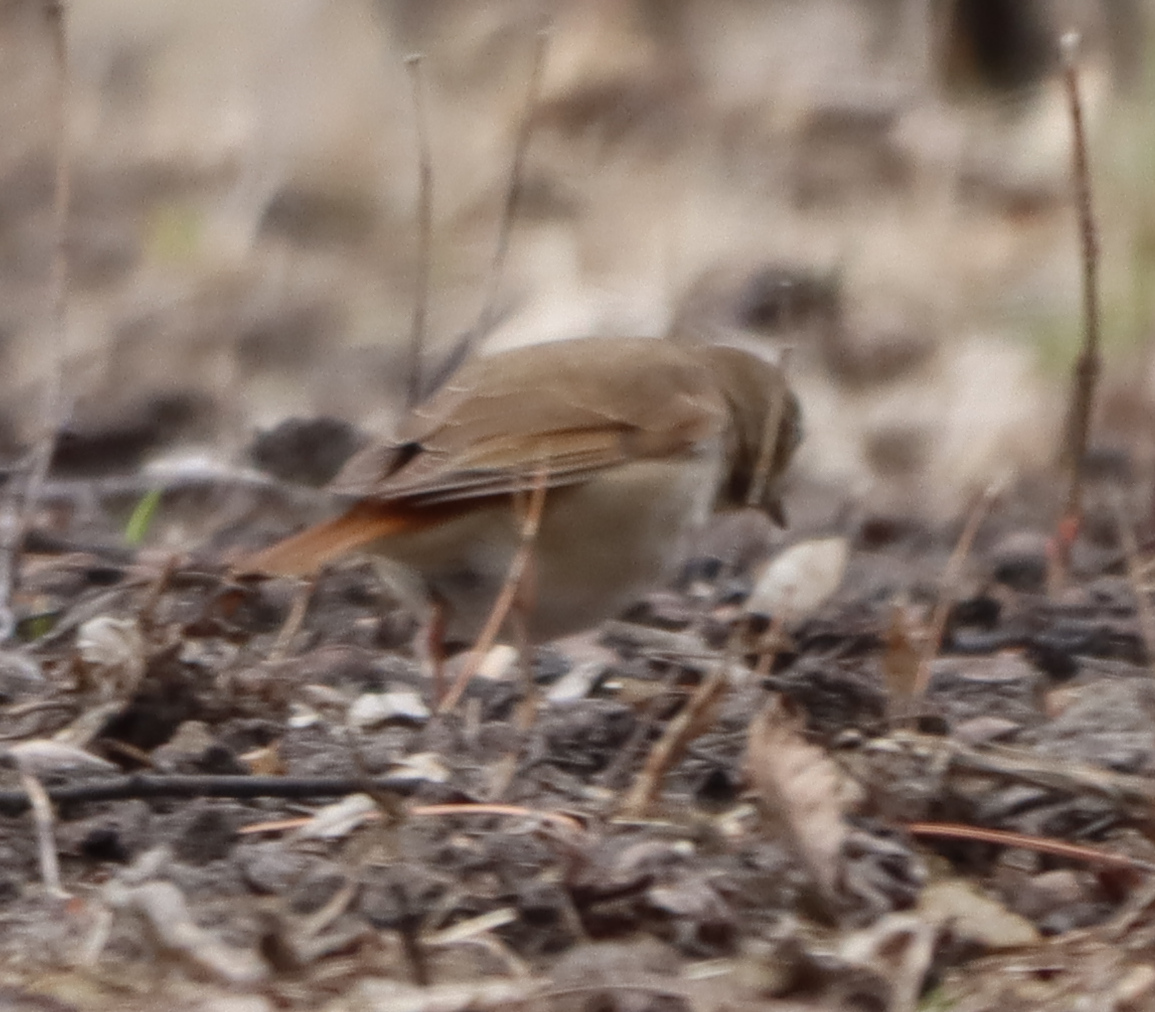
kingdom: Animalia
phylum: Chordata
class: Aves
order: Passeriformes
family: Turdidae
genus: Catharus
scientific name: Catharus guttatus
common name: Hermit thrush
